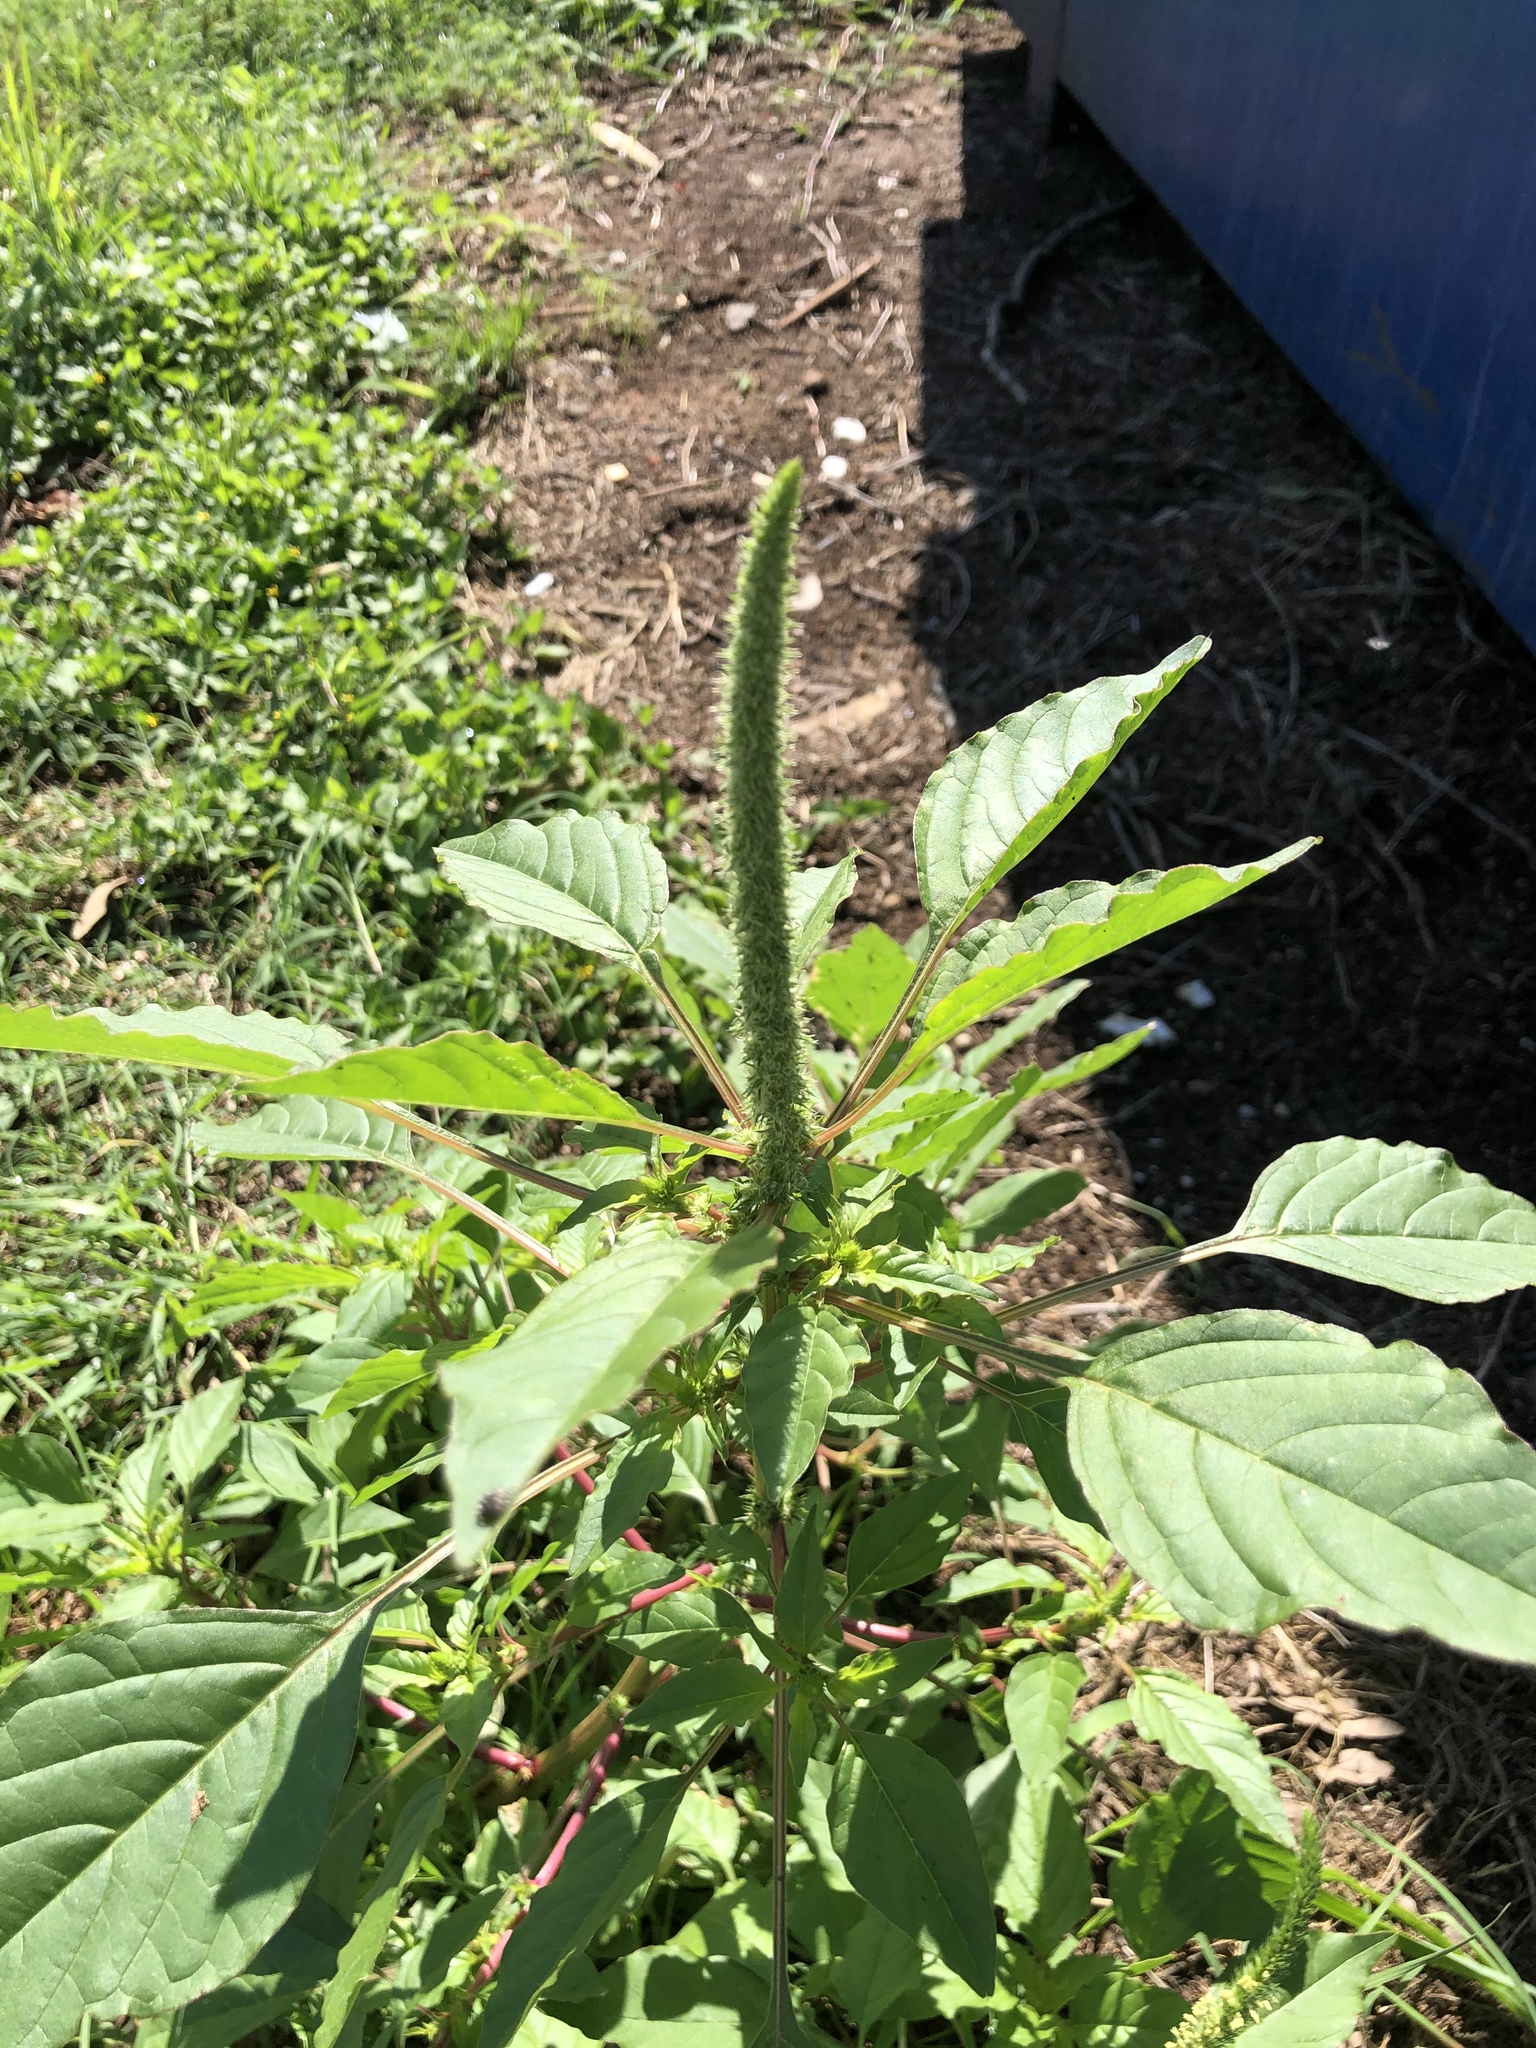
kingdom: Plantae
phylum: Tracheophyta
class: Magnoliopsida
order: Caryophyllales
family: Amaranthaceae
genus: Amaranthus
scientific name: Amaranthus palmeri
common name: Dioecious amaranth
